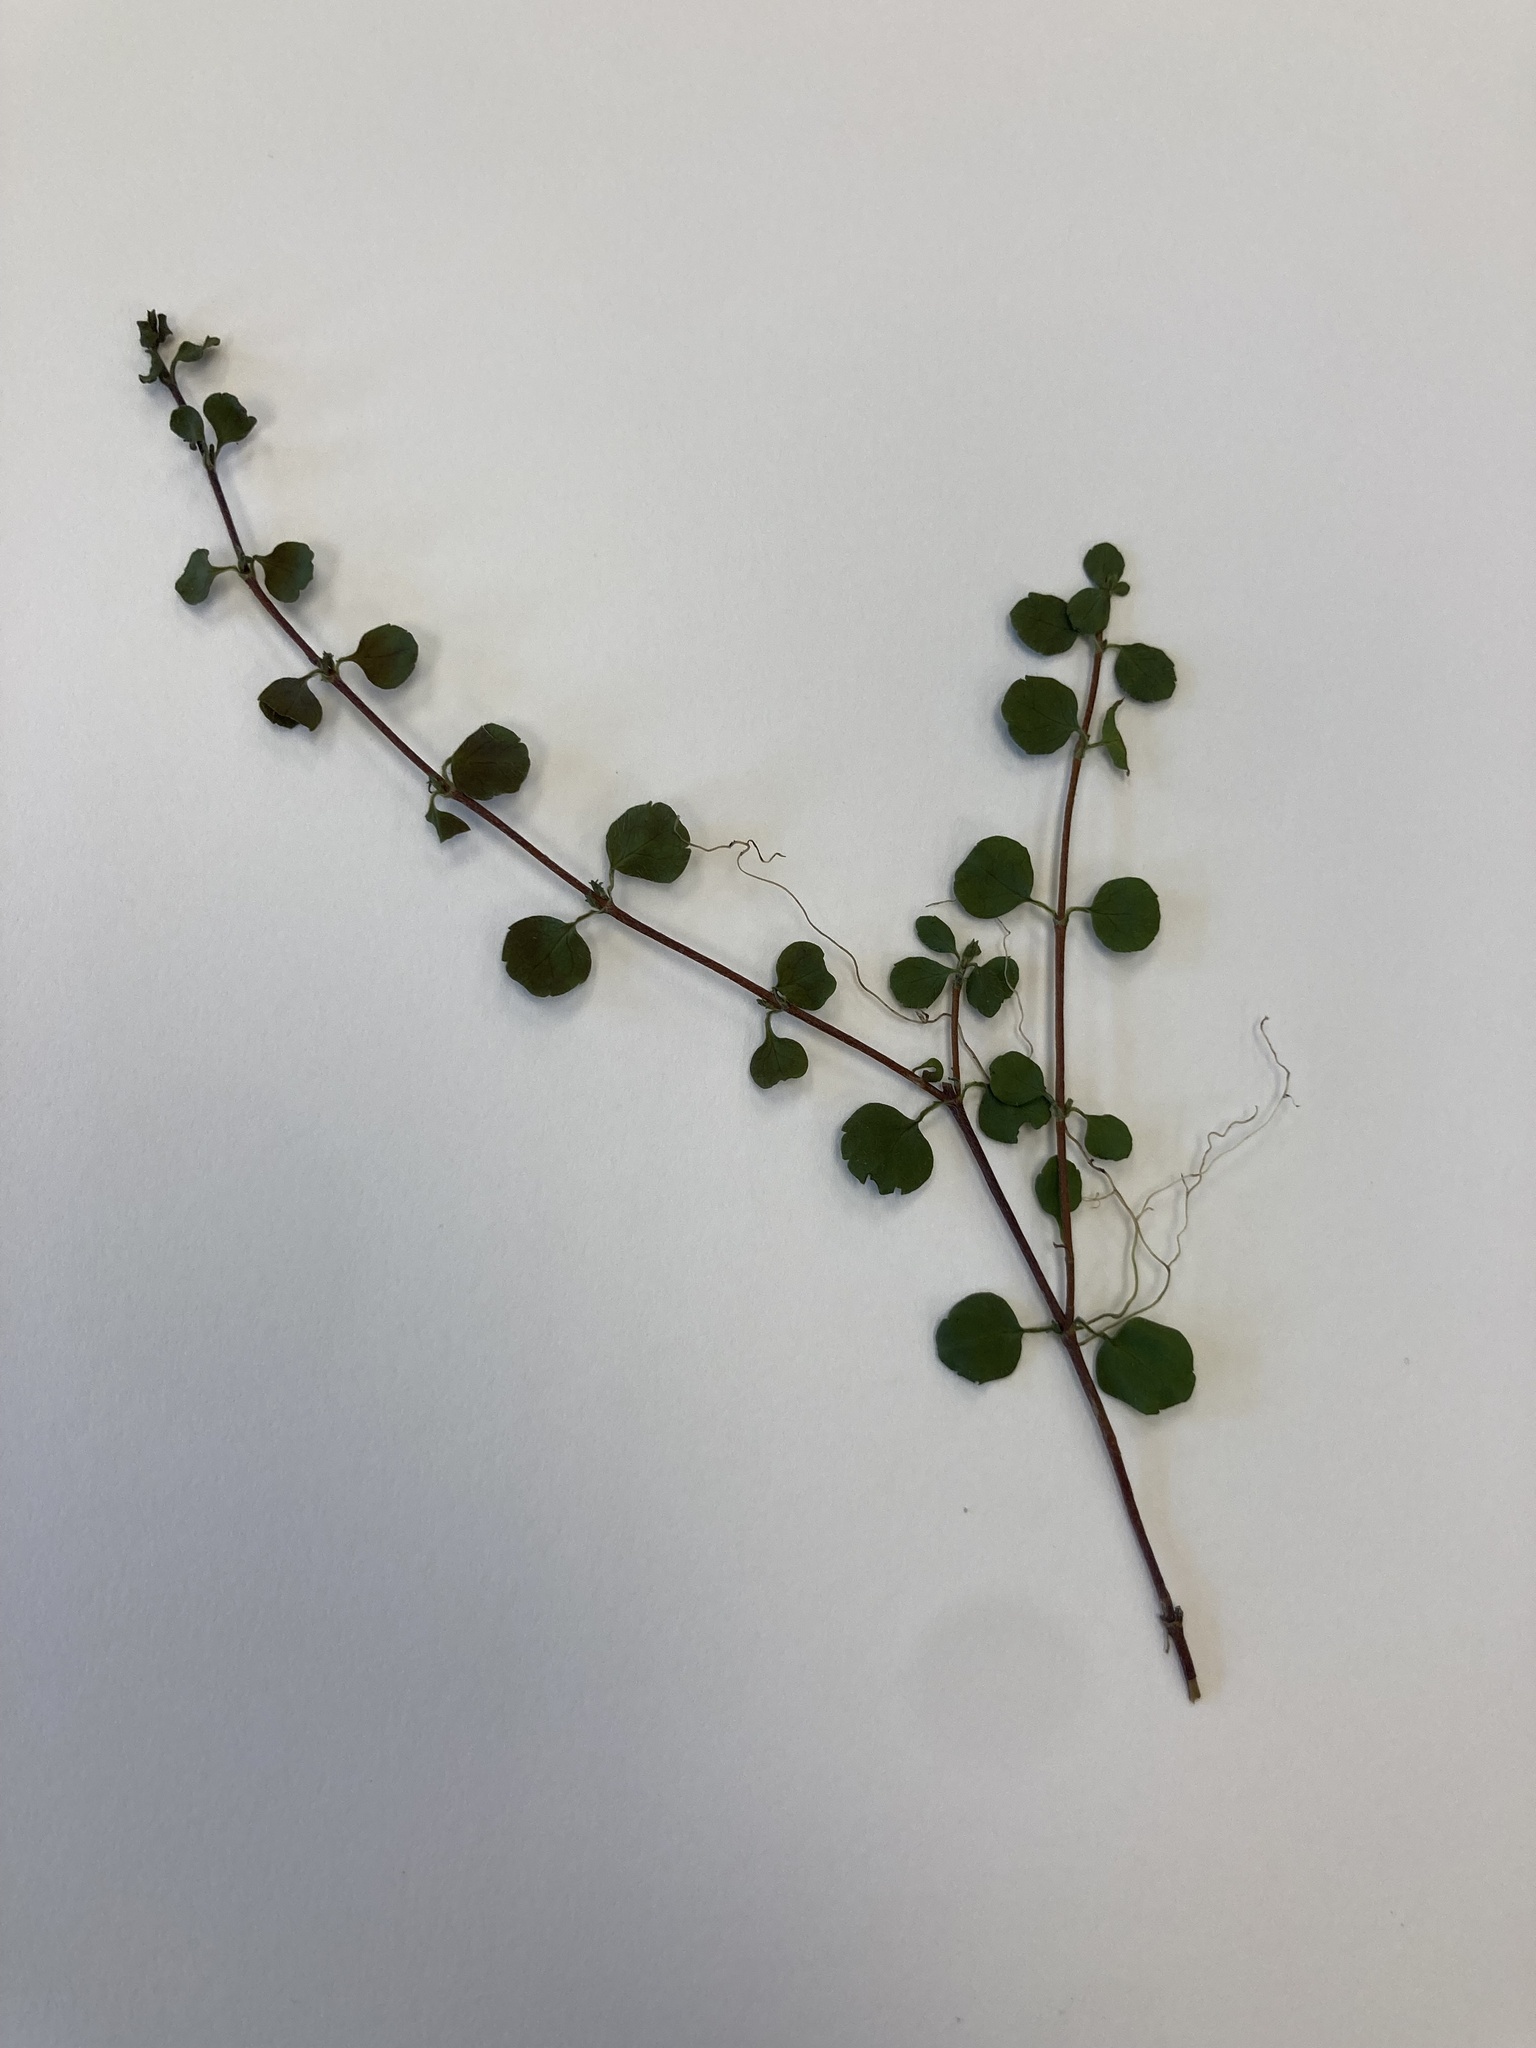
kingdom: Plantae
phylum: Tracheophyta
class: Magnoliopsida
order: Dipsacales
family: Caprifoliaceae
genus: Linnaea
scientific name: Linnaea borealis
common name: Twinflower
